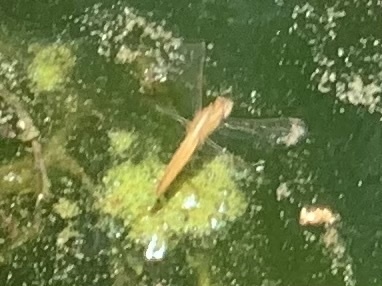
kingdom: Animalia
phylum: Arthropoda
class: Insecta
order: Odonata
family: Libellulidae
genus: Crocothemis
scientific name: Crocothemis erythraea
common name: Scarlet dragonfly
